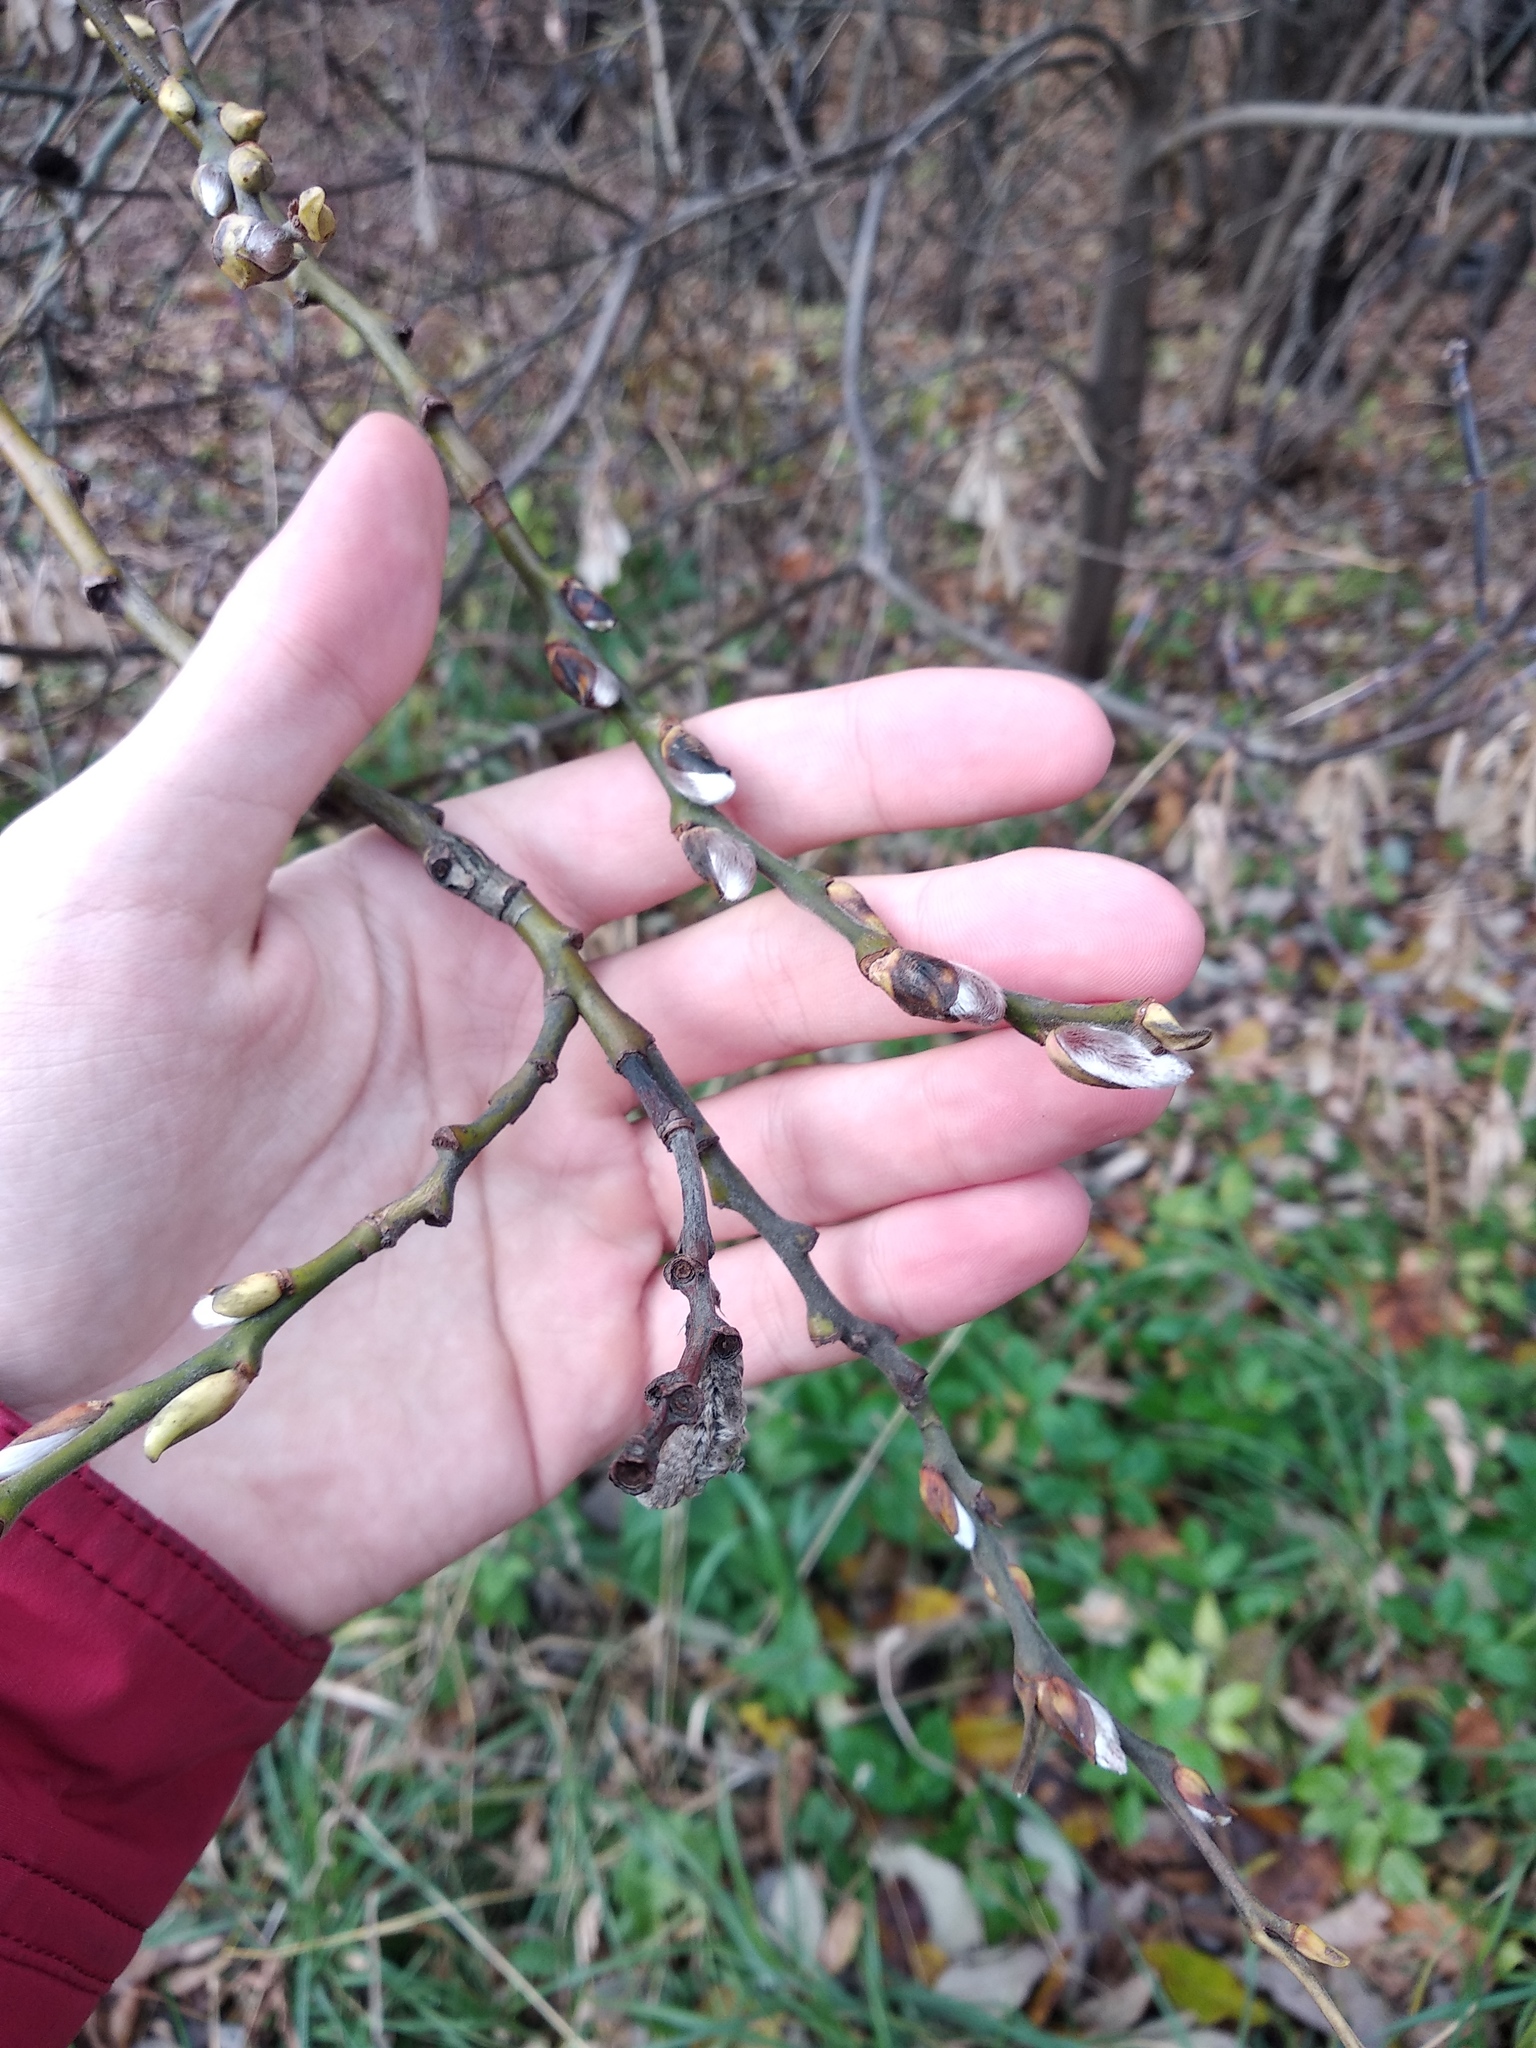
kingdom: Plantae
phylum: Tracheophyta
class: Magnoliopsida
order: Malpighiales
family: Salicaceae
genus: Salix
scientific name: Salix caprea
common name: Goat willow
